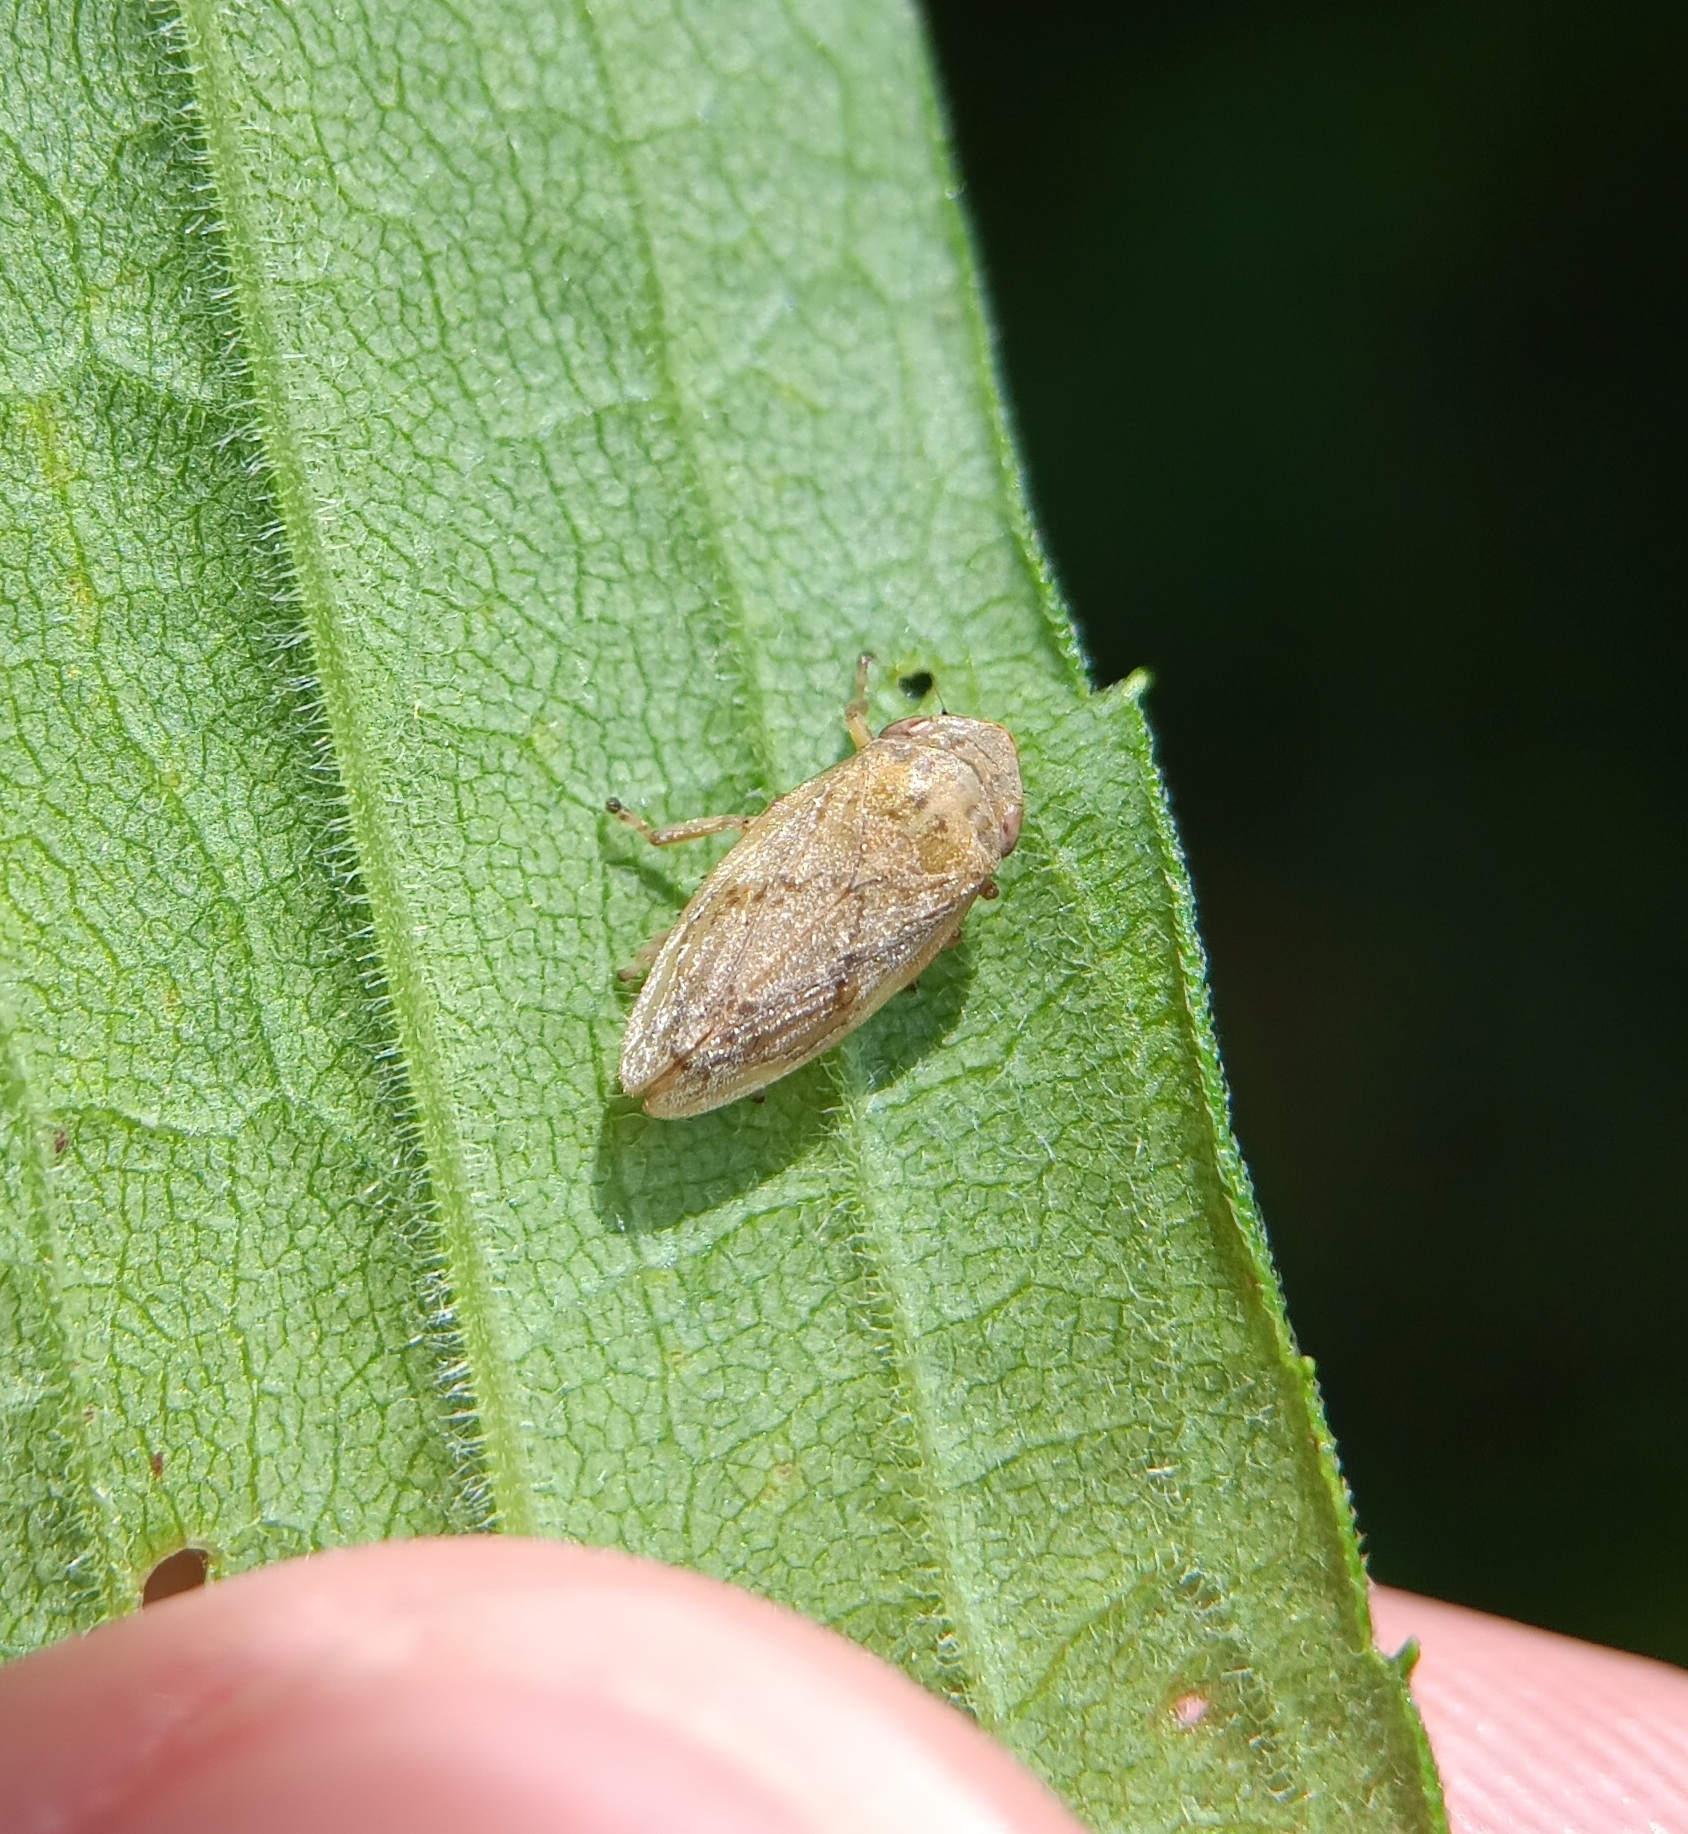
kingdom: Animalia
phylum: Arthropoda
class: Insecta
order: Hemiptera
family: Aphrophoridae
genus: Philaenus
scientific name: Philaenus spumarius
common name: Meadow spittlebug
